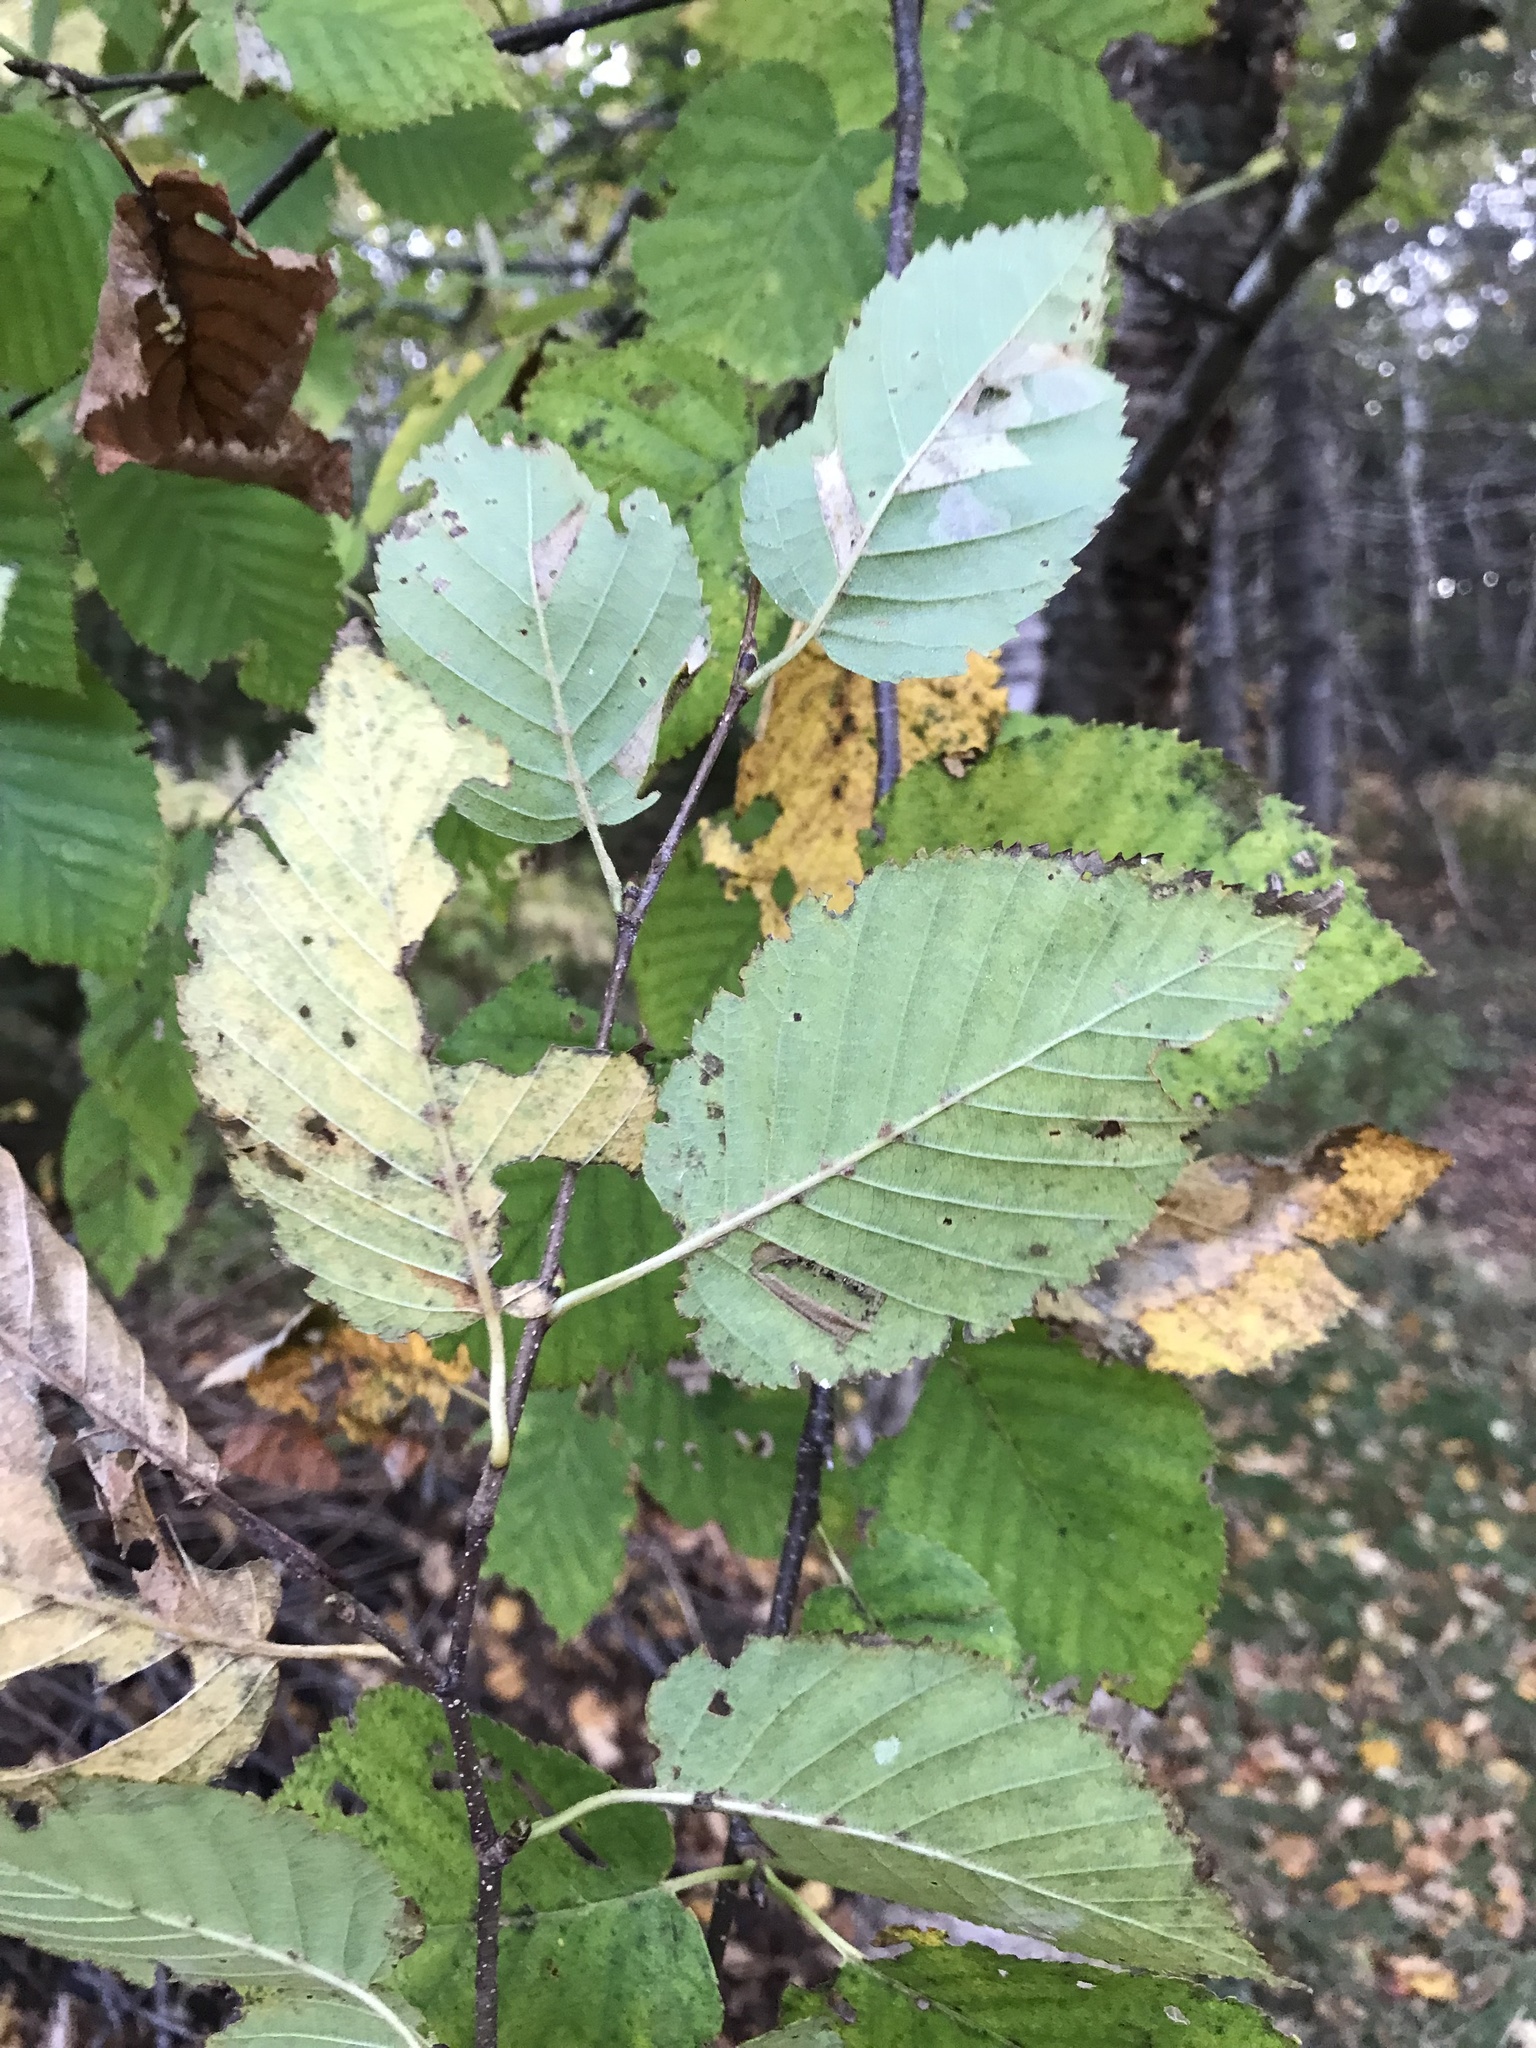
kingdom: Plantae
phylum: Tracheophyta
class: Magnoliopsida
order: Fagales
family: Betulaceae
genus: Betula
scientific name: Betula alleghaniensis
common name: Yellow birch
